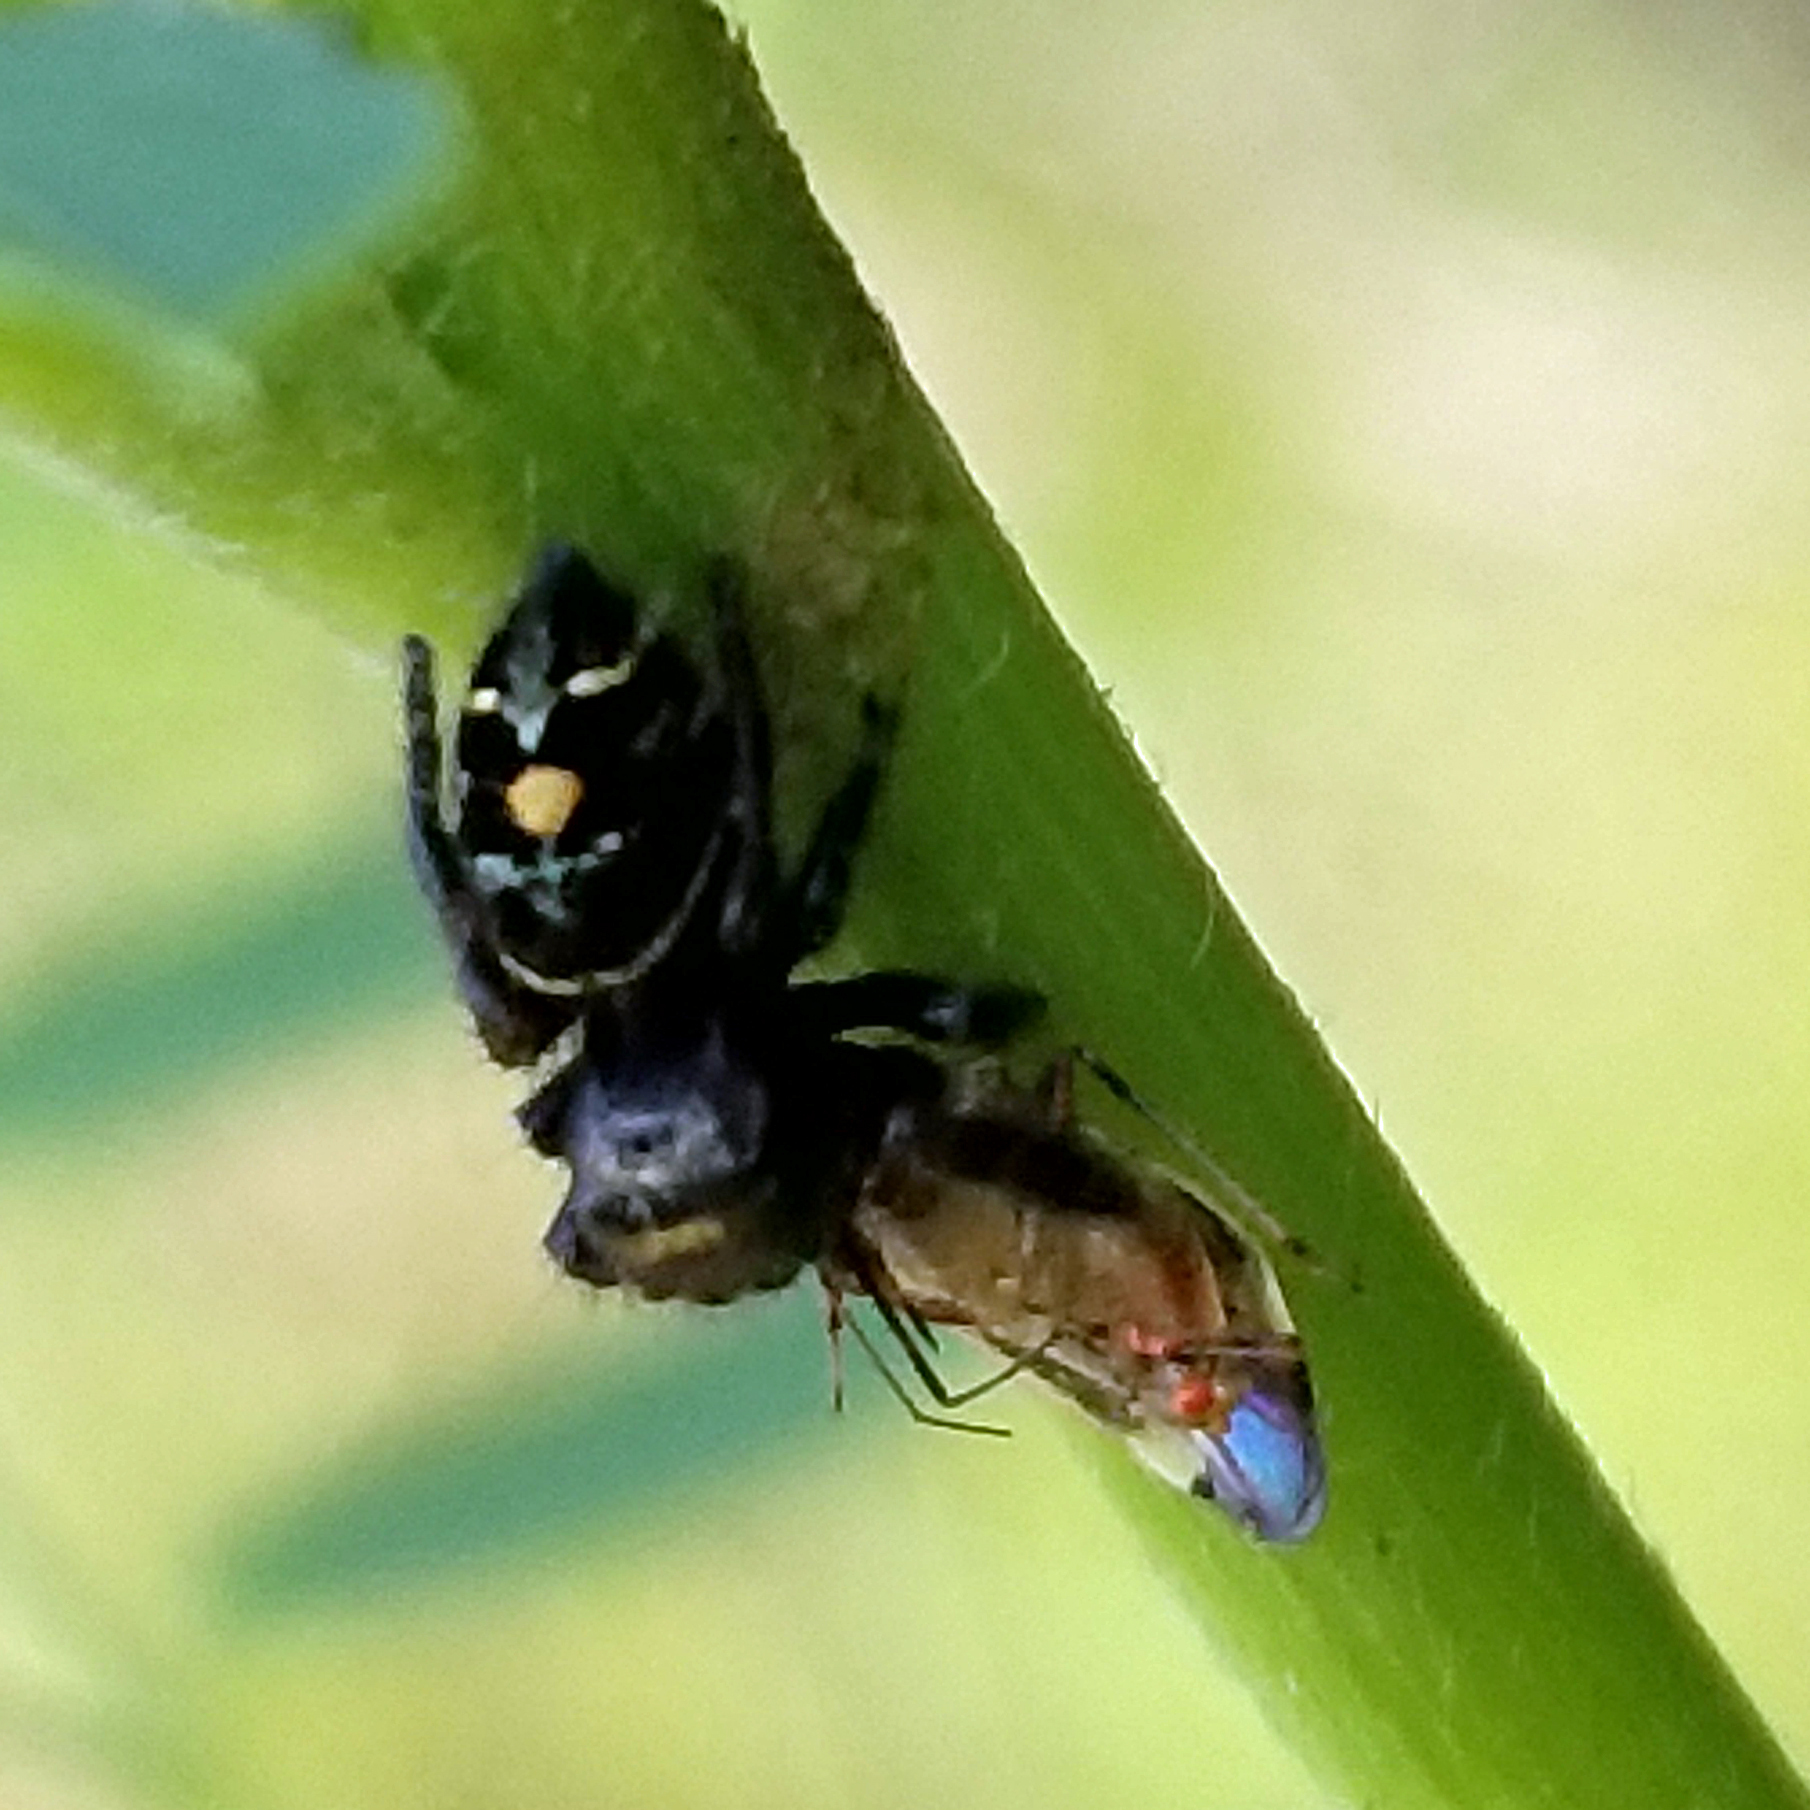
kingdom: Animalia
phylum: Arthropoda
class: Arachnida
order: Araneae
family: Salticidae
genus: Phidippus
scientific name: Phidippus audax
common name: Bold jumper
